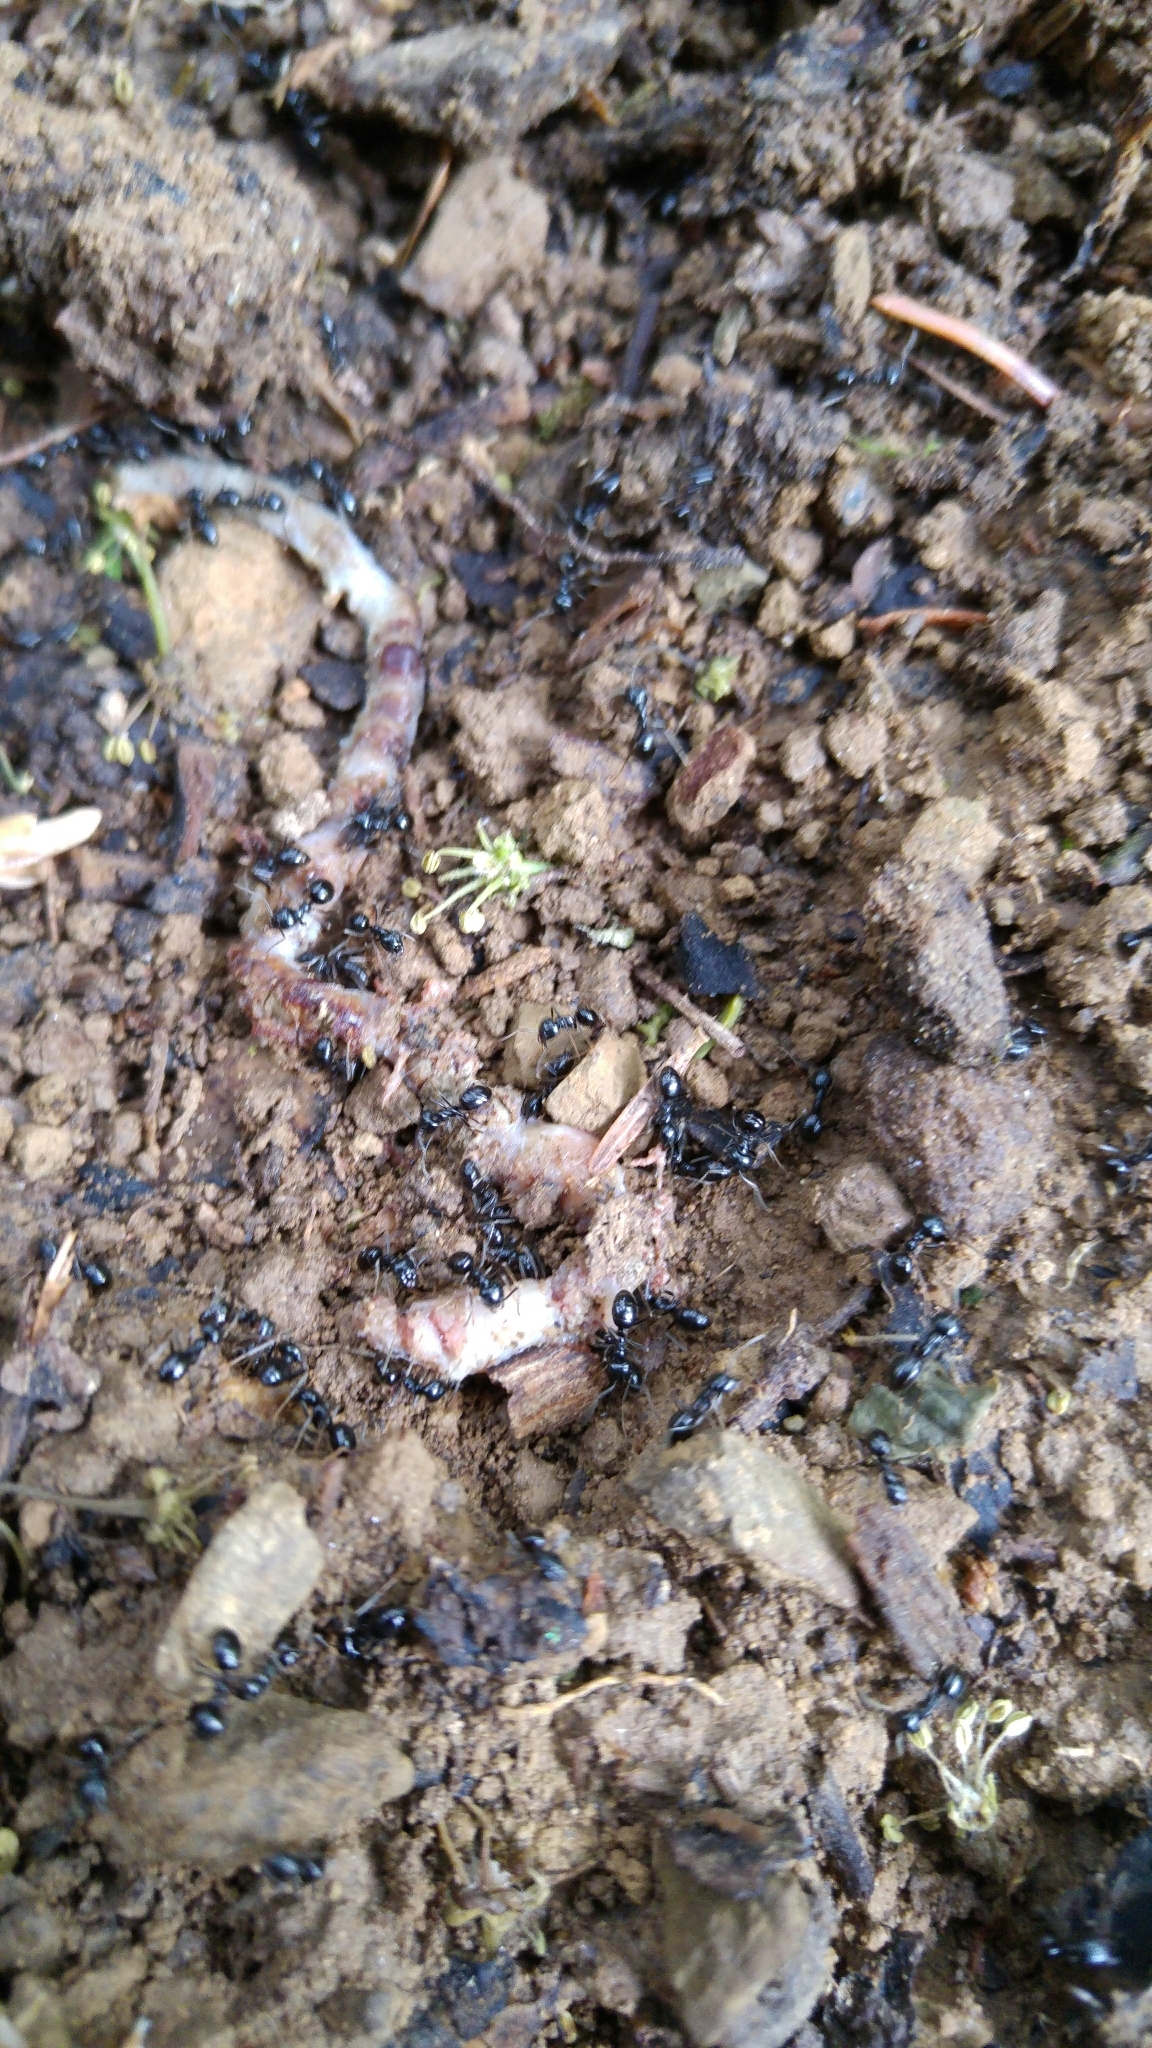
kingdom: Animalia
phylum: Arthropoda
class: Insecta
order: Hymenoptera
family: Formicidae
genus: Lasius
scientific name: Lasius fuliginosus
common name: Jet ant
